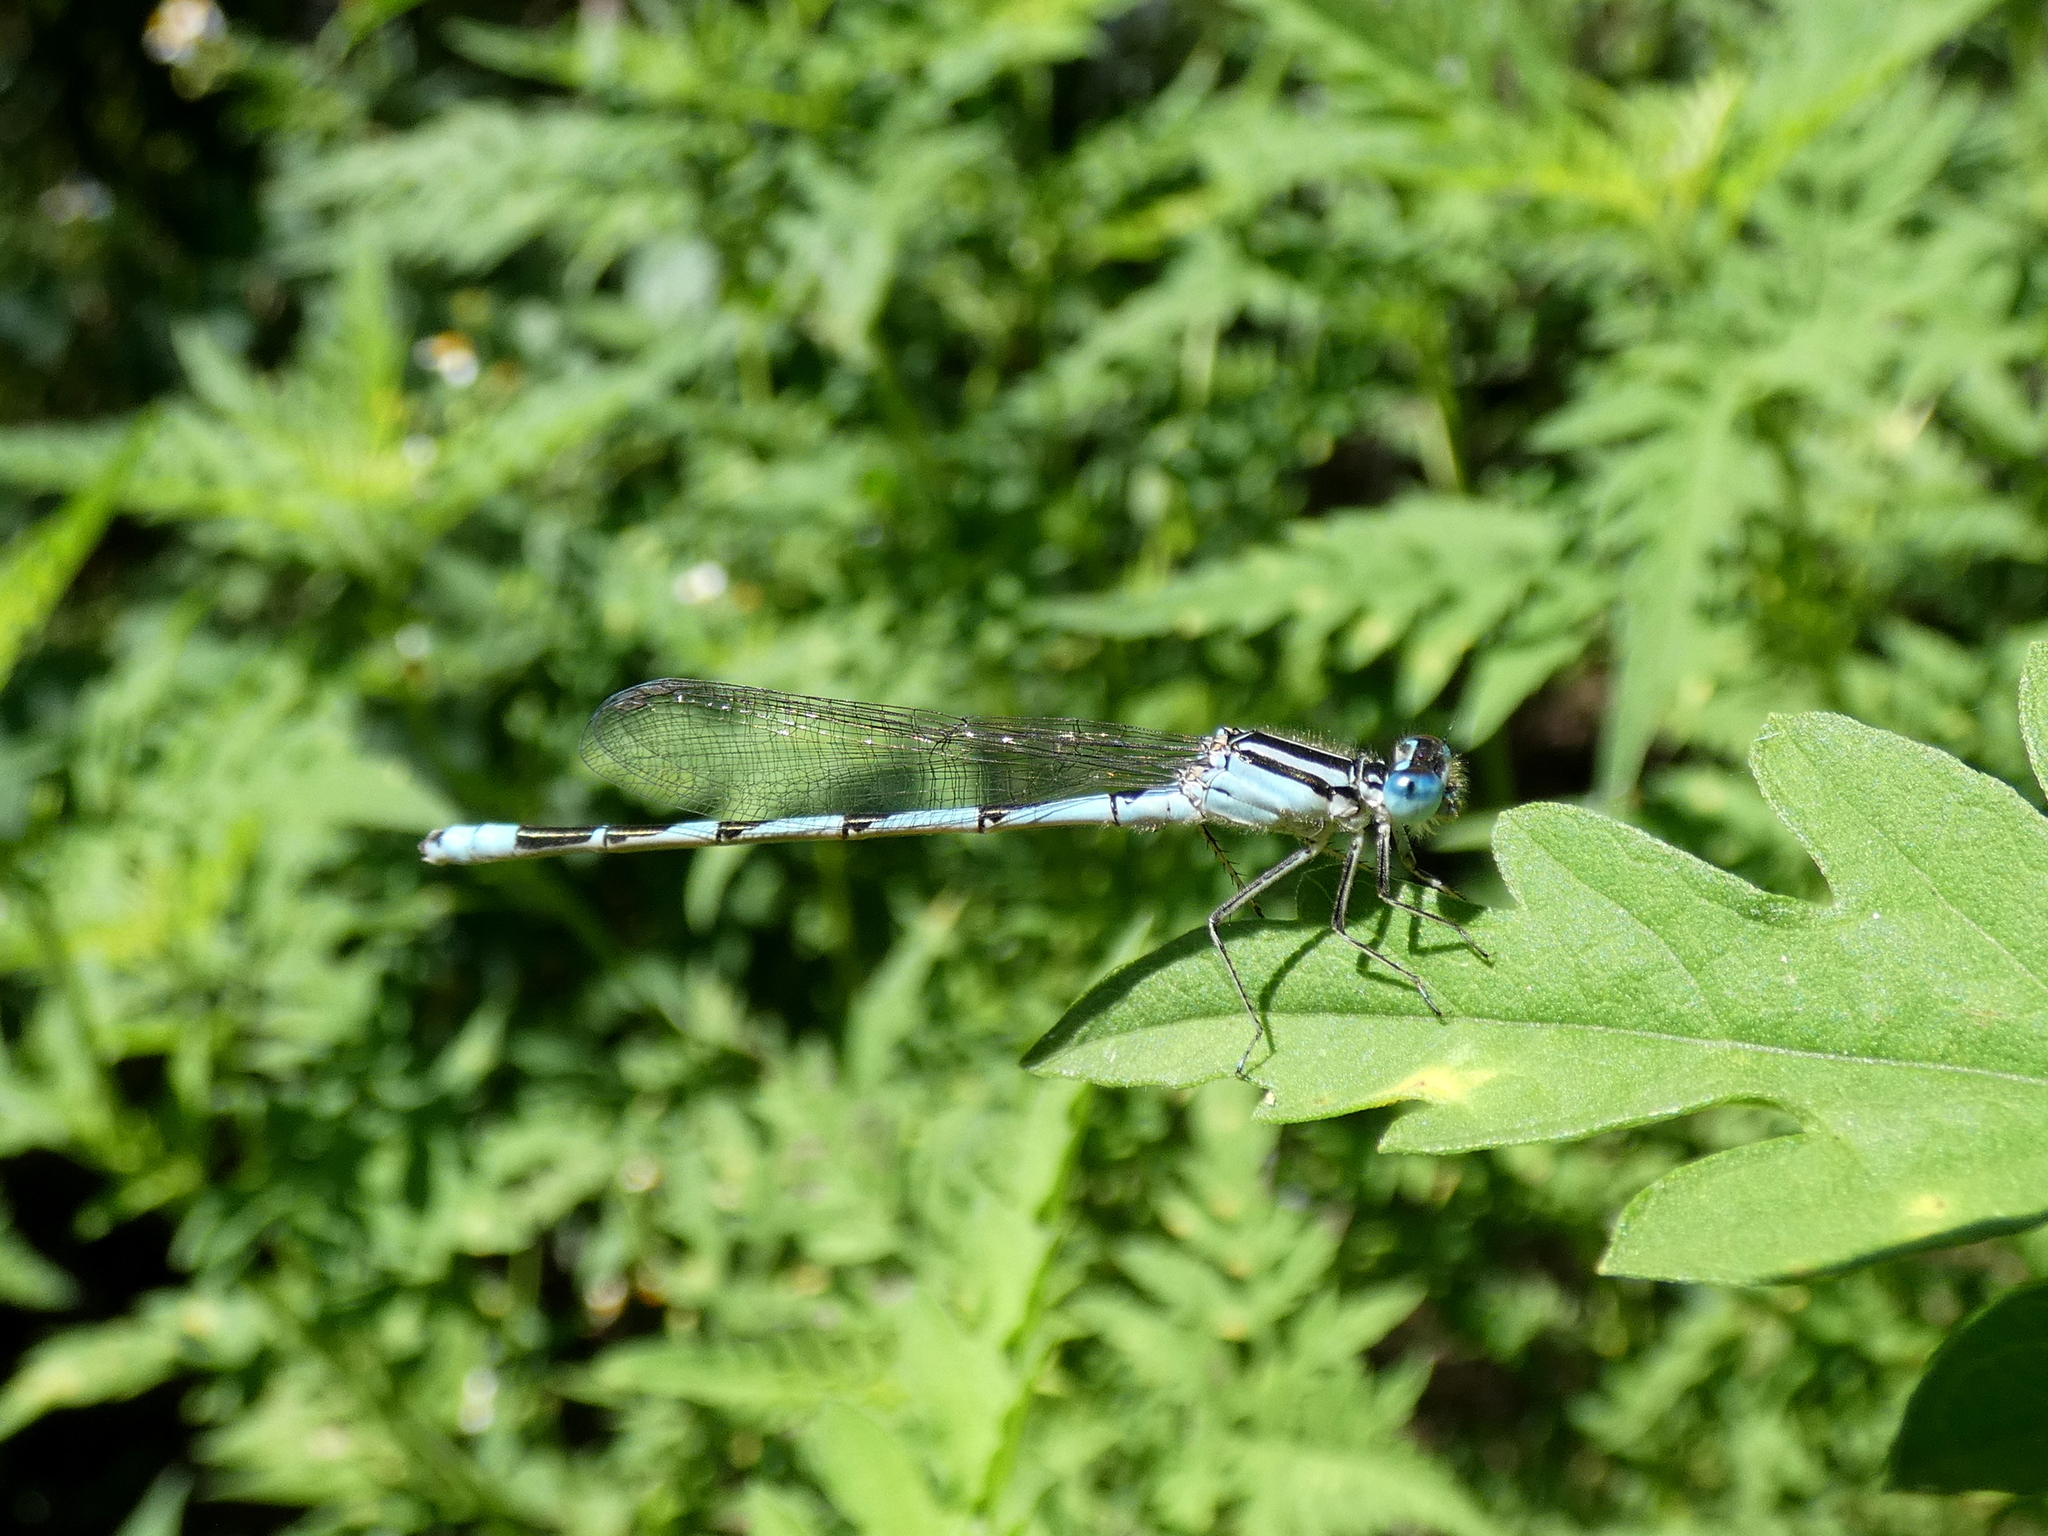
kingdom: Animalia
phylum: Arthropoda
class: Insecta
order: Odonata
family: Coenagrionidae
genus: Enallagma
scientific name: Enallagma durum
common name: Big bluet
